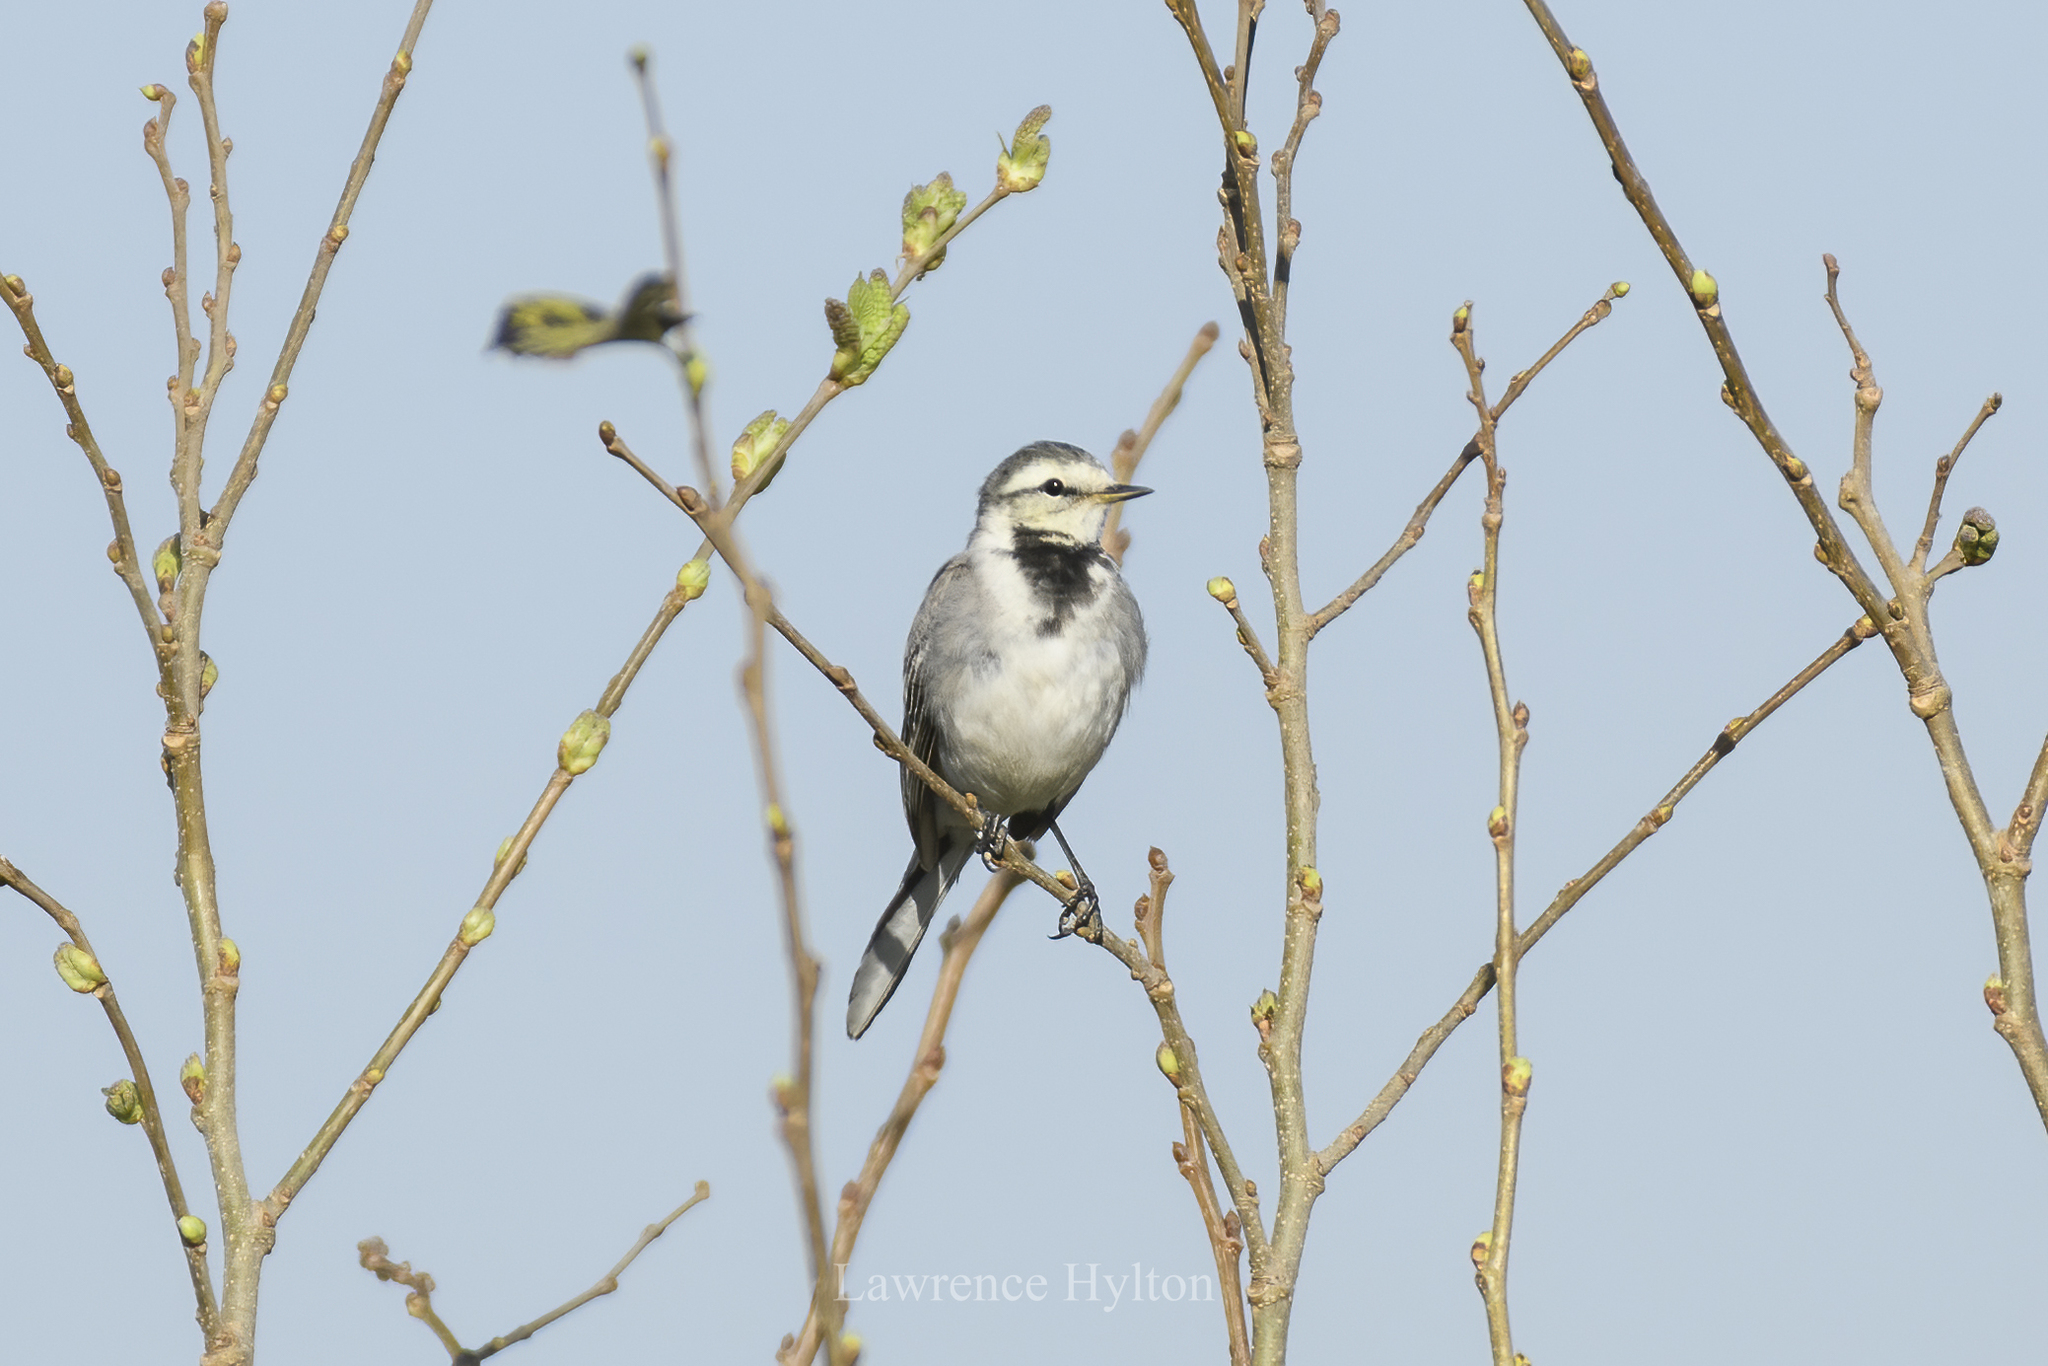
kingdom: Animalia
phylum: Chordata
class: Aves
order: Passeriformes
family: Motacillidae
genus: Motacilla
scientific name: Motacilla alba
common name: White wagtail
